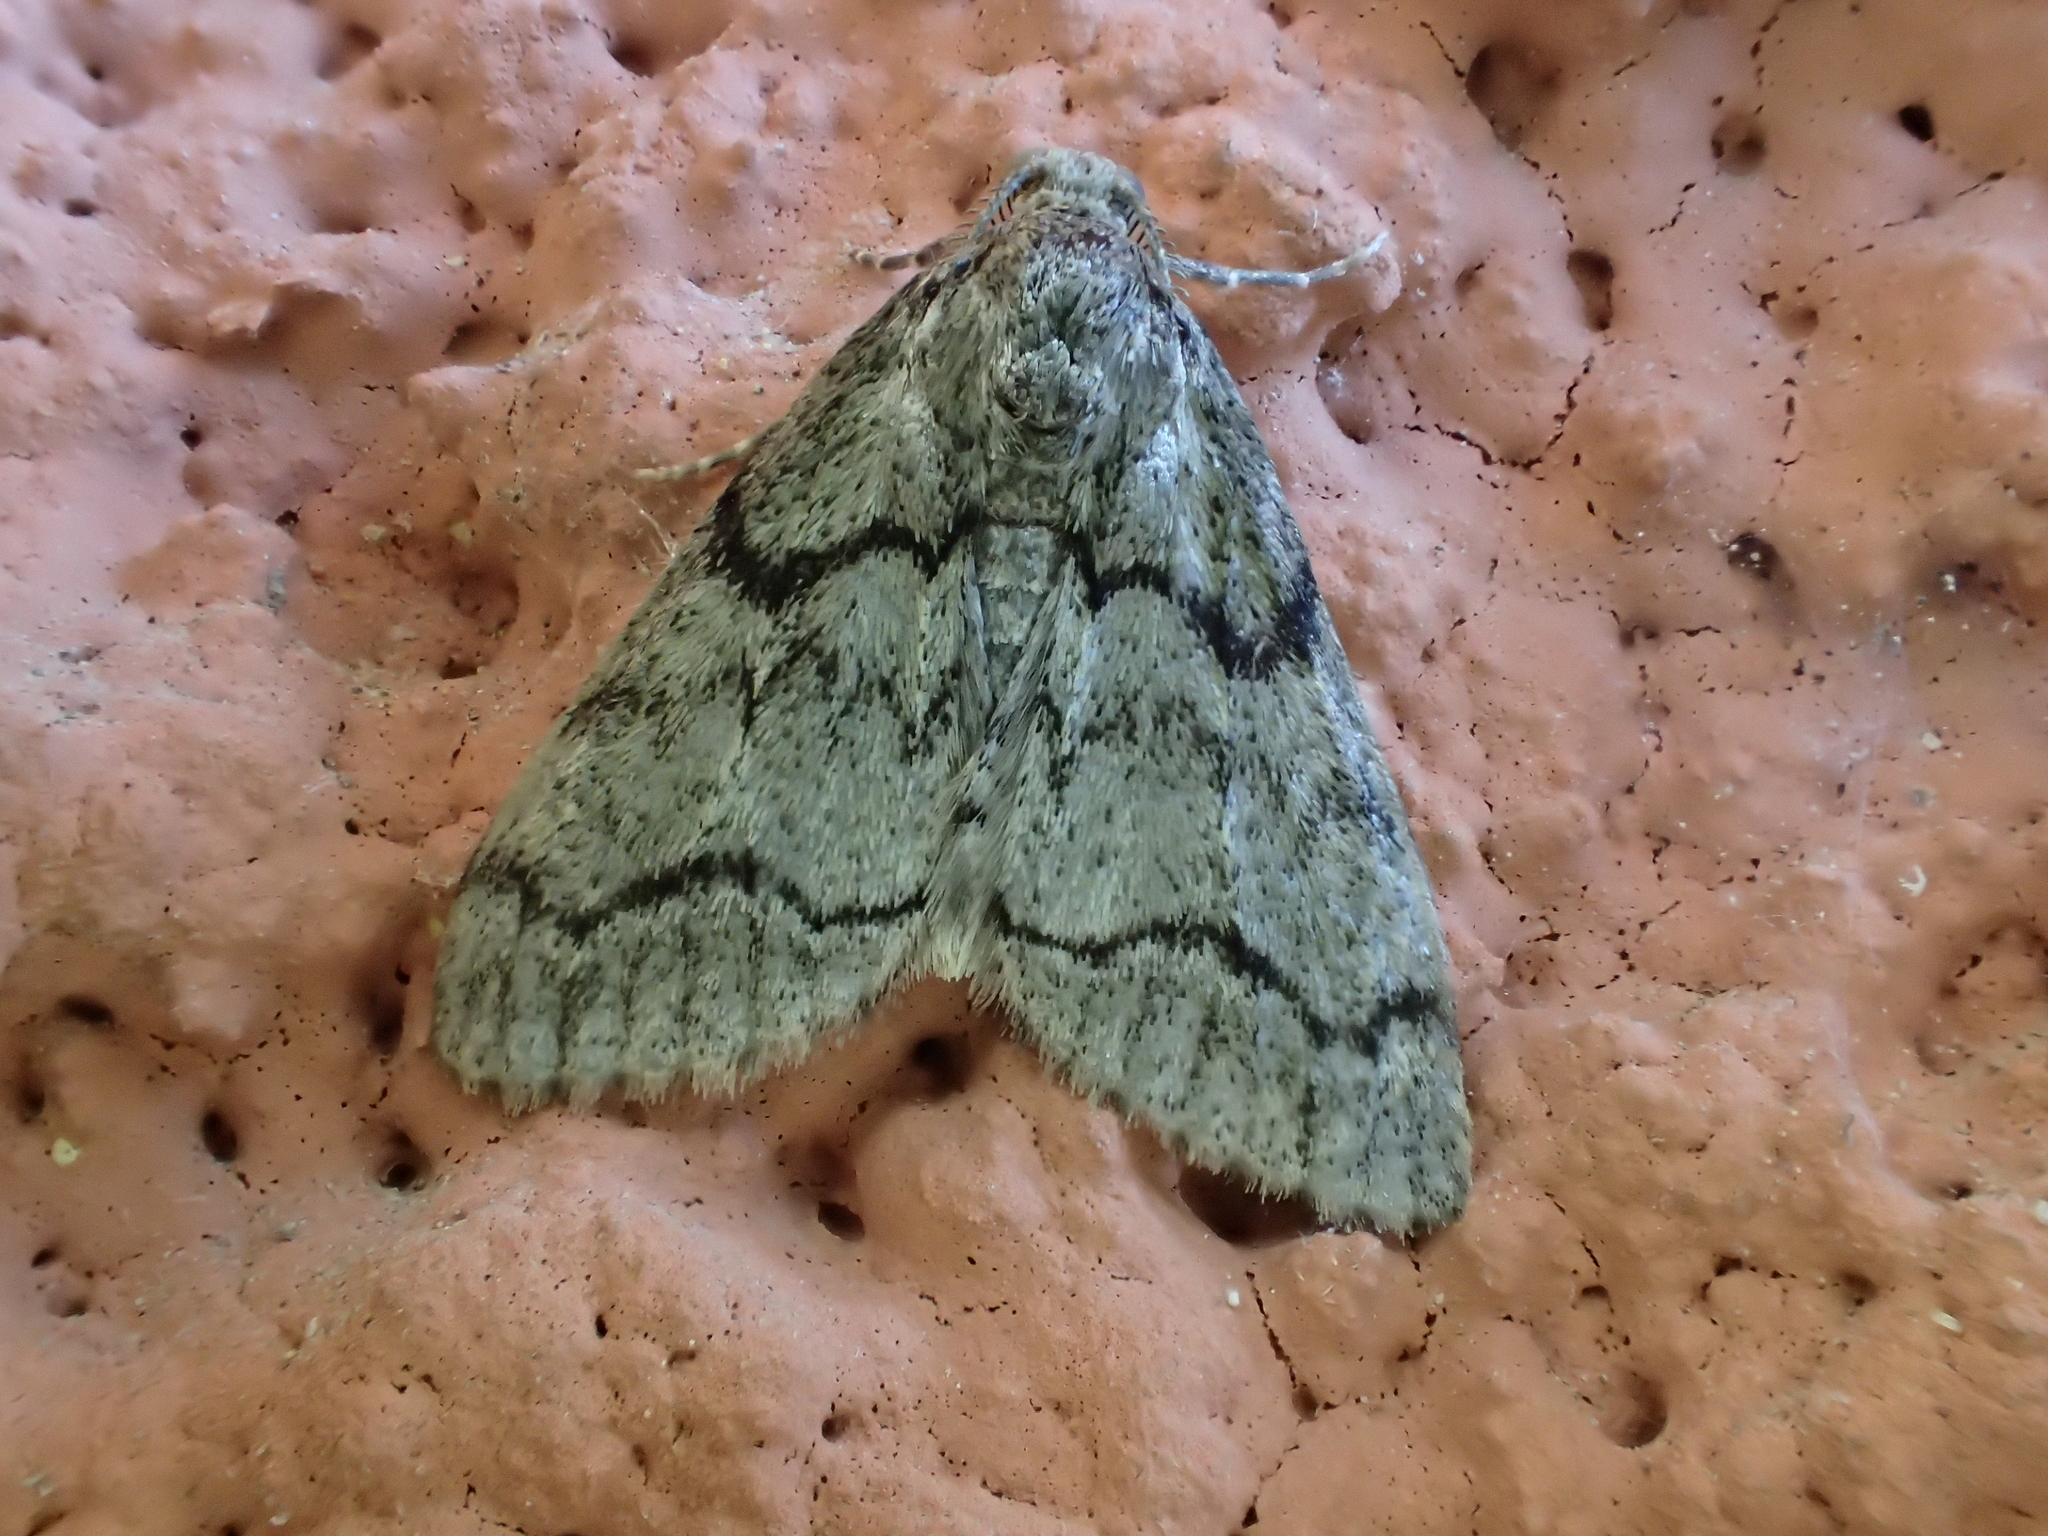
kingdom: Animalia
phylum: Arthropoda
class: Insecta
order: Lepidoptera
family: Geometridae
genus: Tephronia
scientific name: Tephronia sepiaria
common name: Dusky carpet
